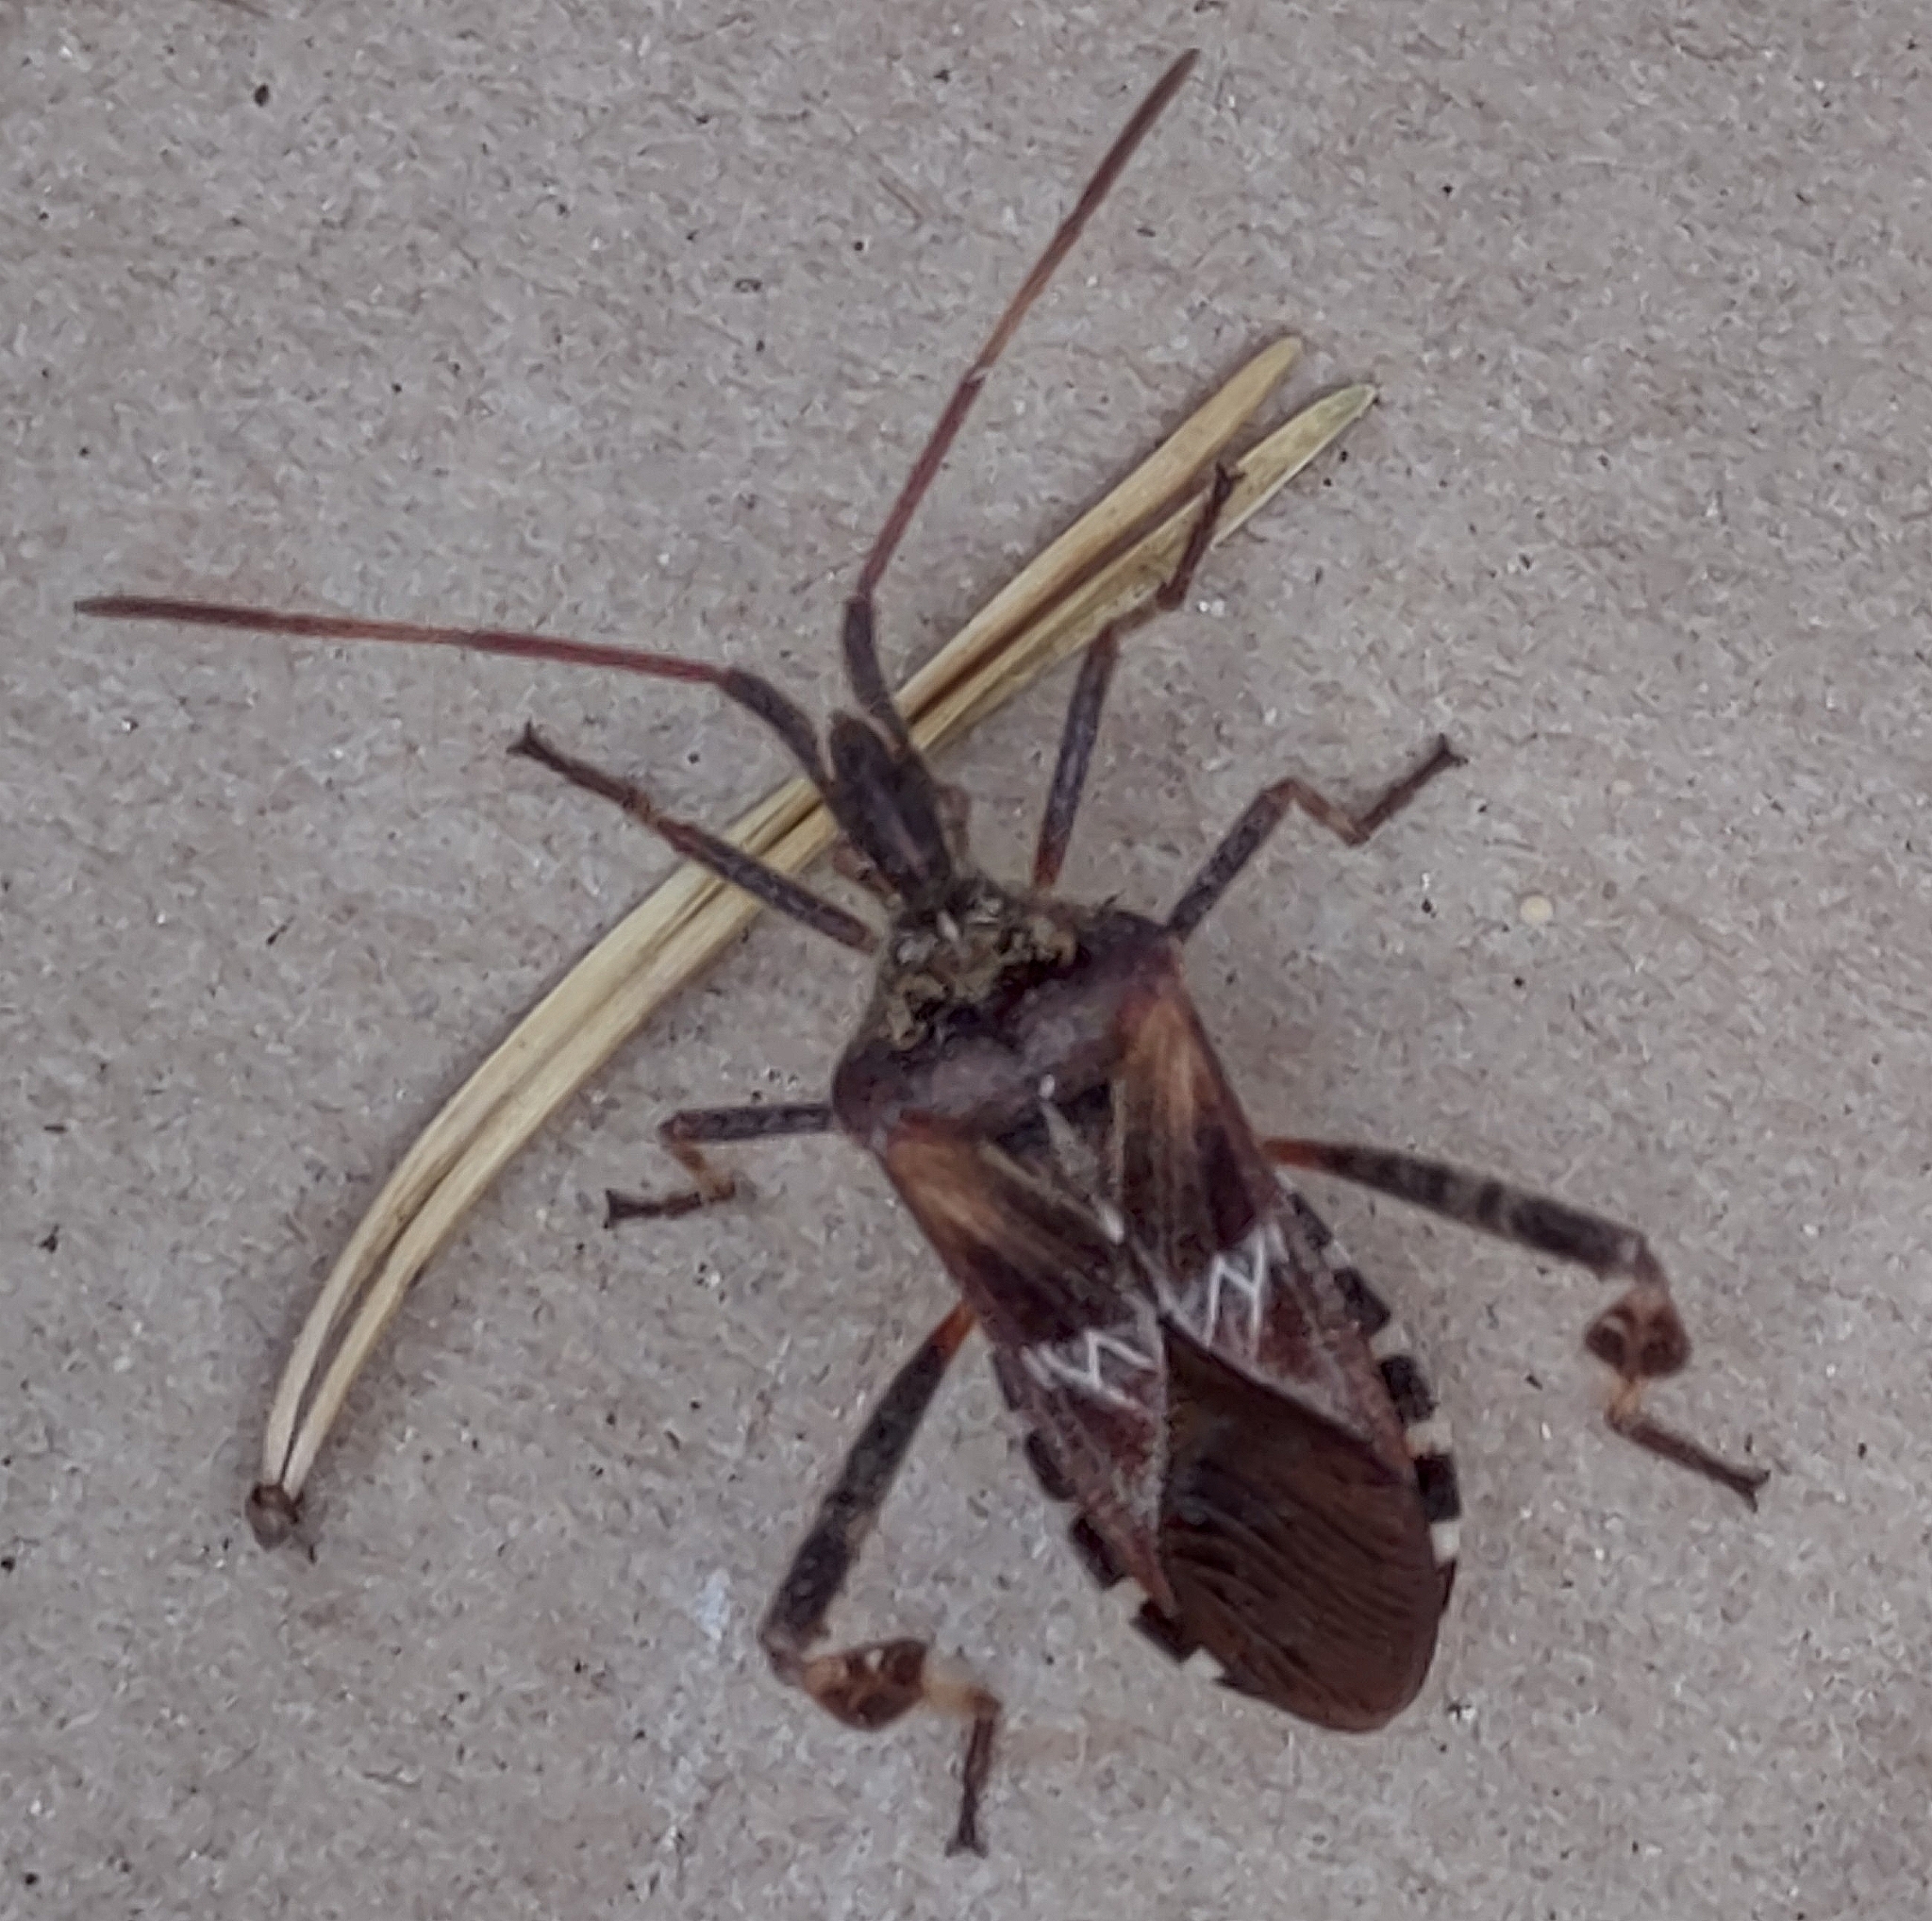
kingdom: Animalia
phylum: Arthropoda
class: Insecta
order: Hemiptera
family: Coreidae
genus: Leptoglossus
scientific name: Leptoglossus occidentalis
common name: Western conifer-seed bug
